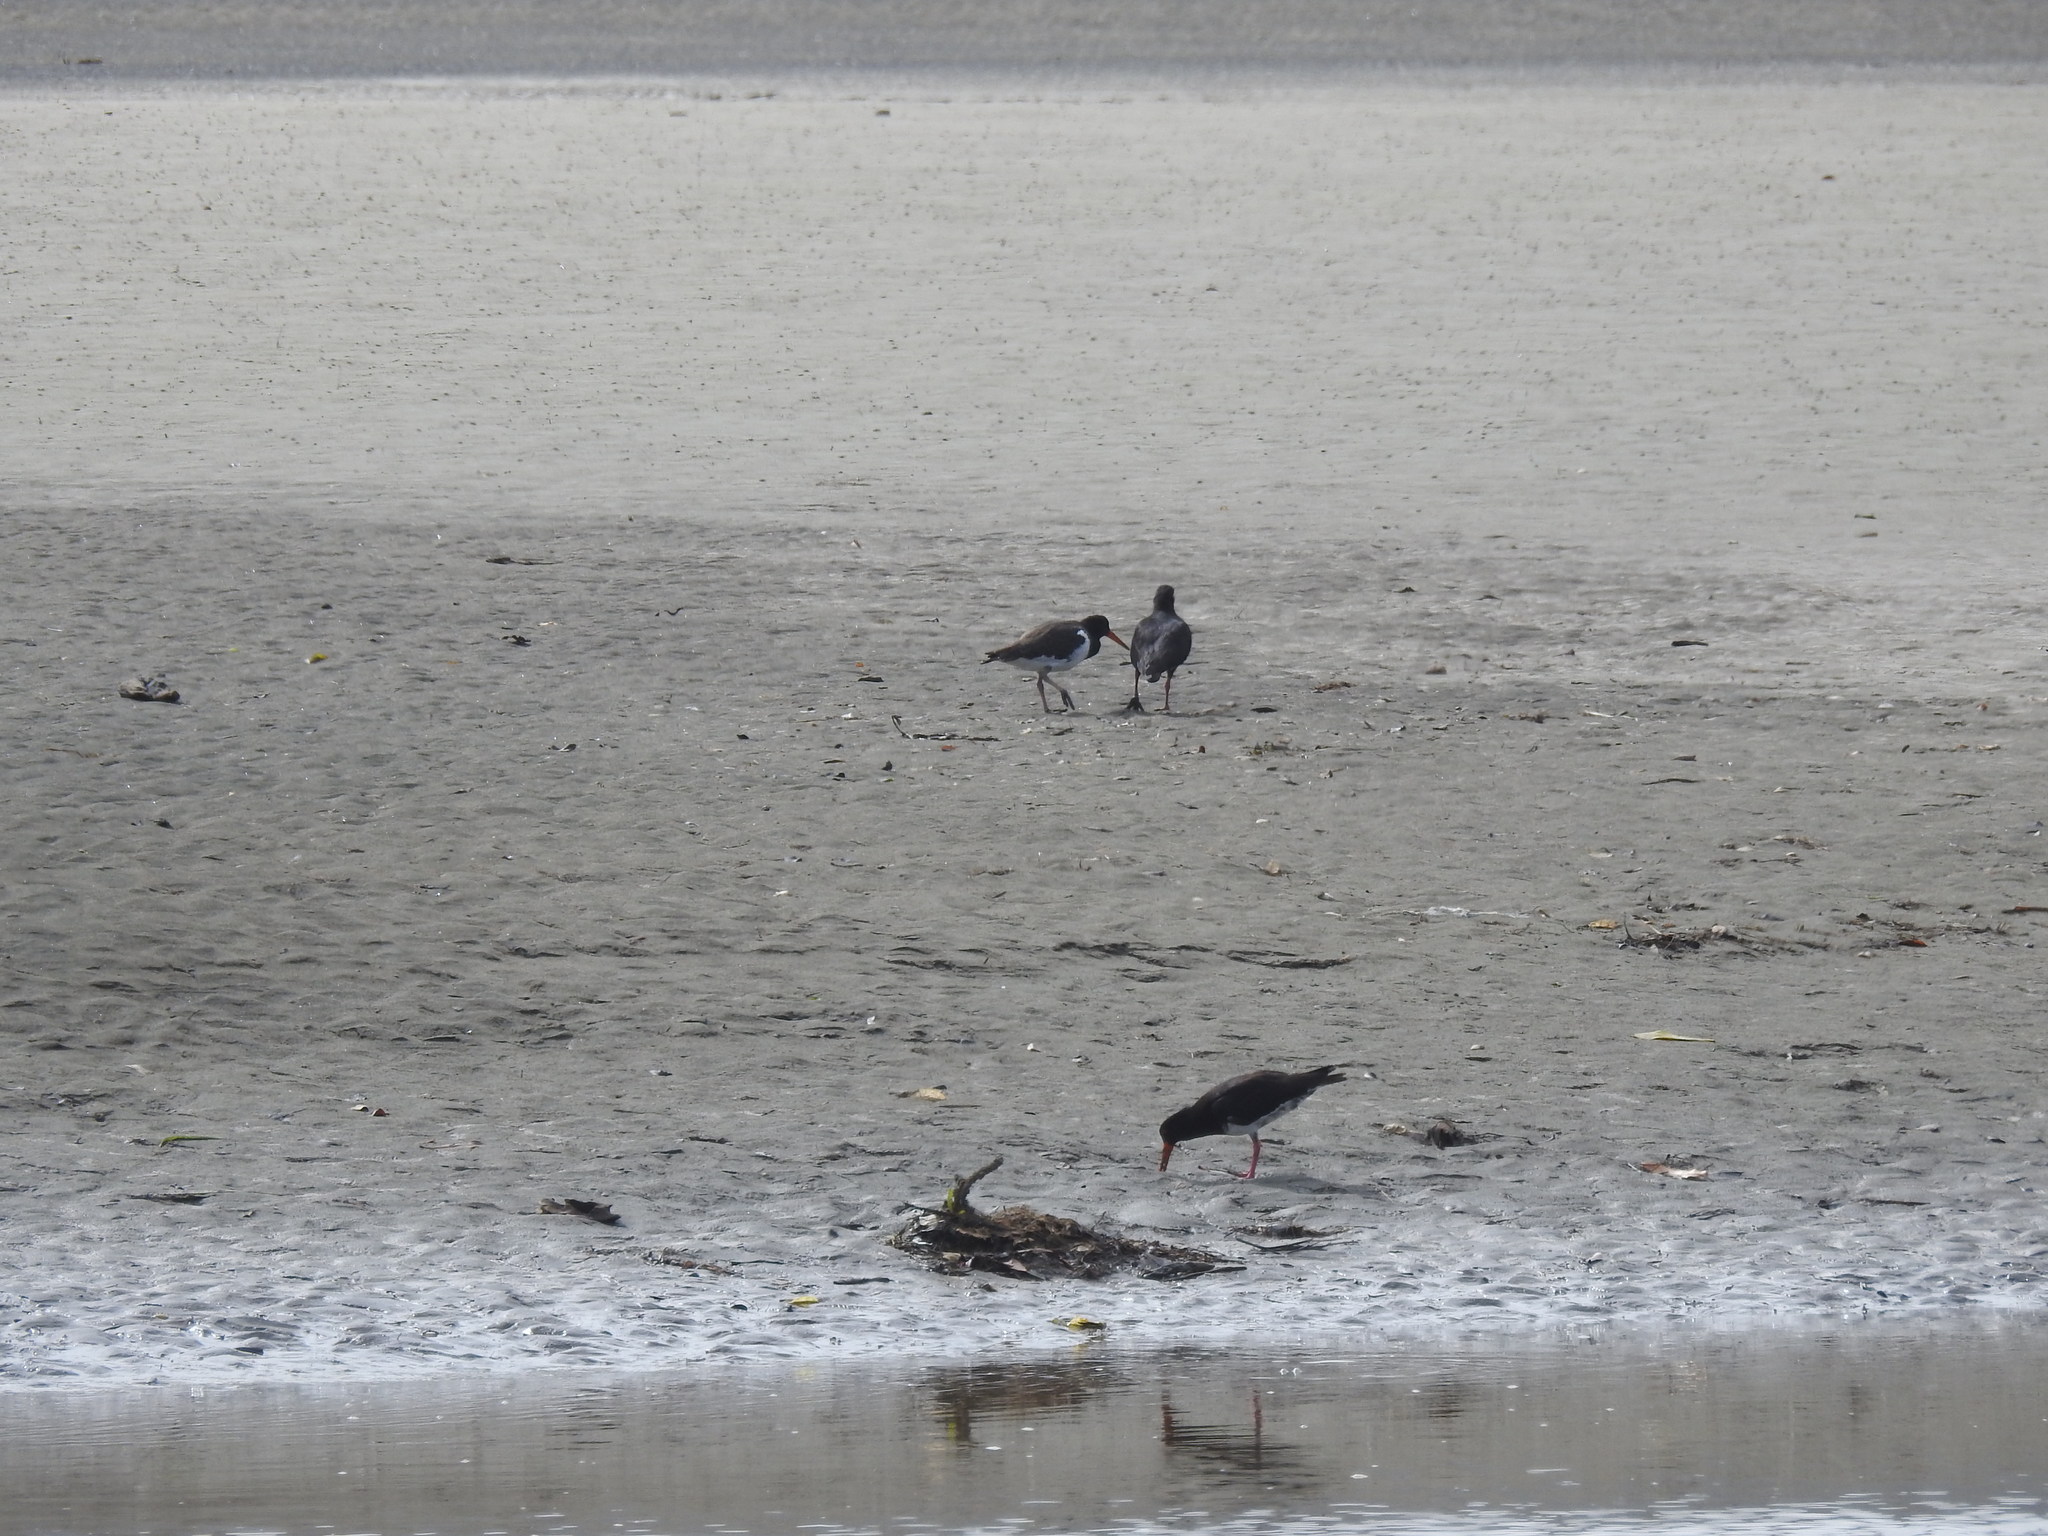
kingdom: Animalia
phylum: Chordata
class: Aves
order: Charadriiformes
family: Haematopodidae
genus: Haematopus
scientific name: Haematopus unicolor
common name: Variable oystercatcher
